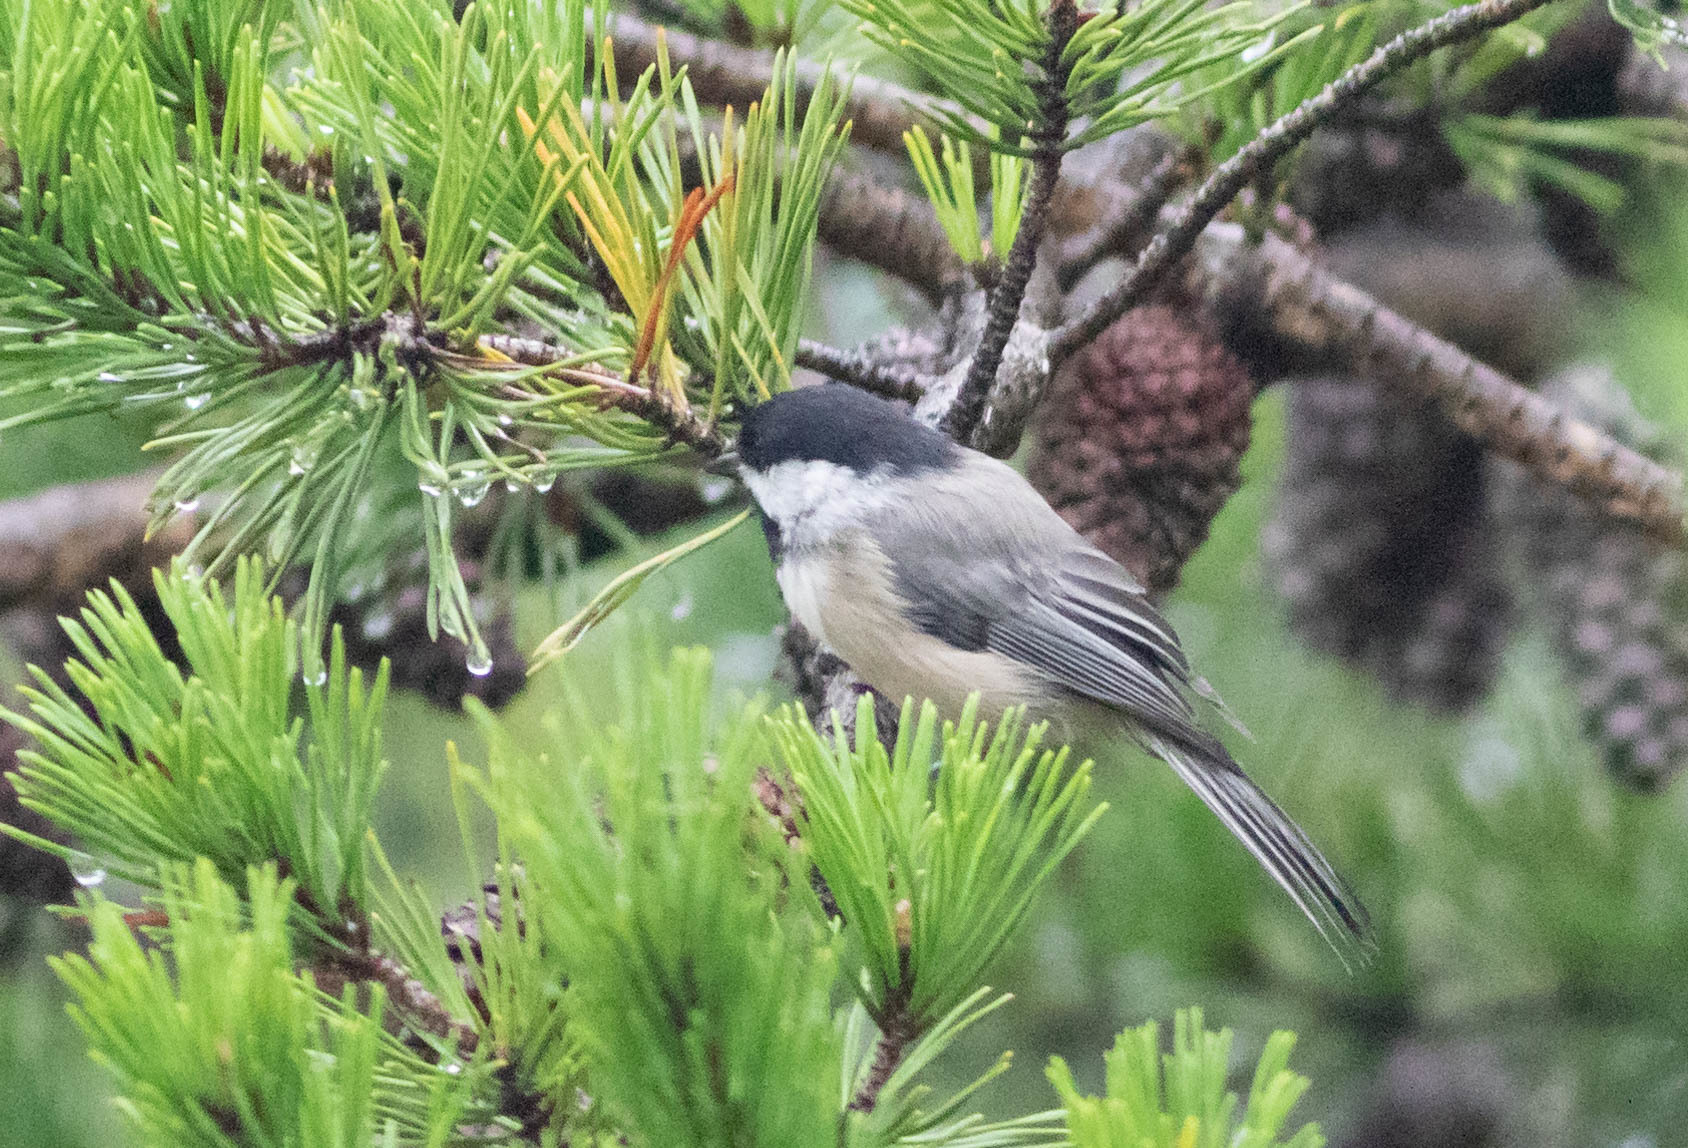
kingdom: Animalia
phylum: Chordata
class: Aves
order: Passeriformes
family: Paridae
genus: Poecile
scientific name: Poecile carolinensis
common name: Carolina chickadee
